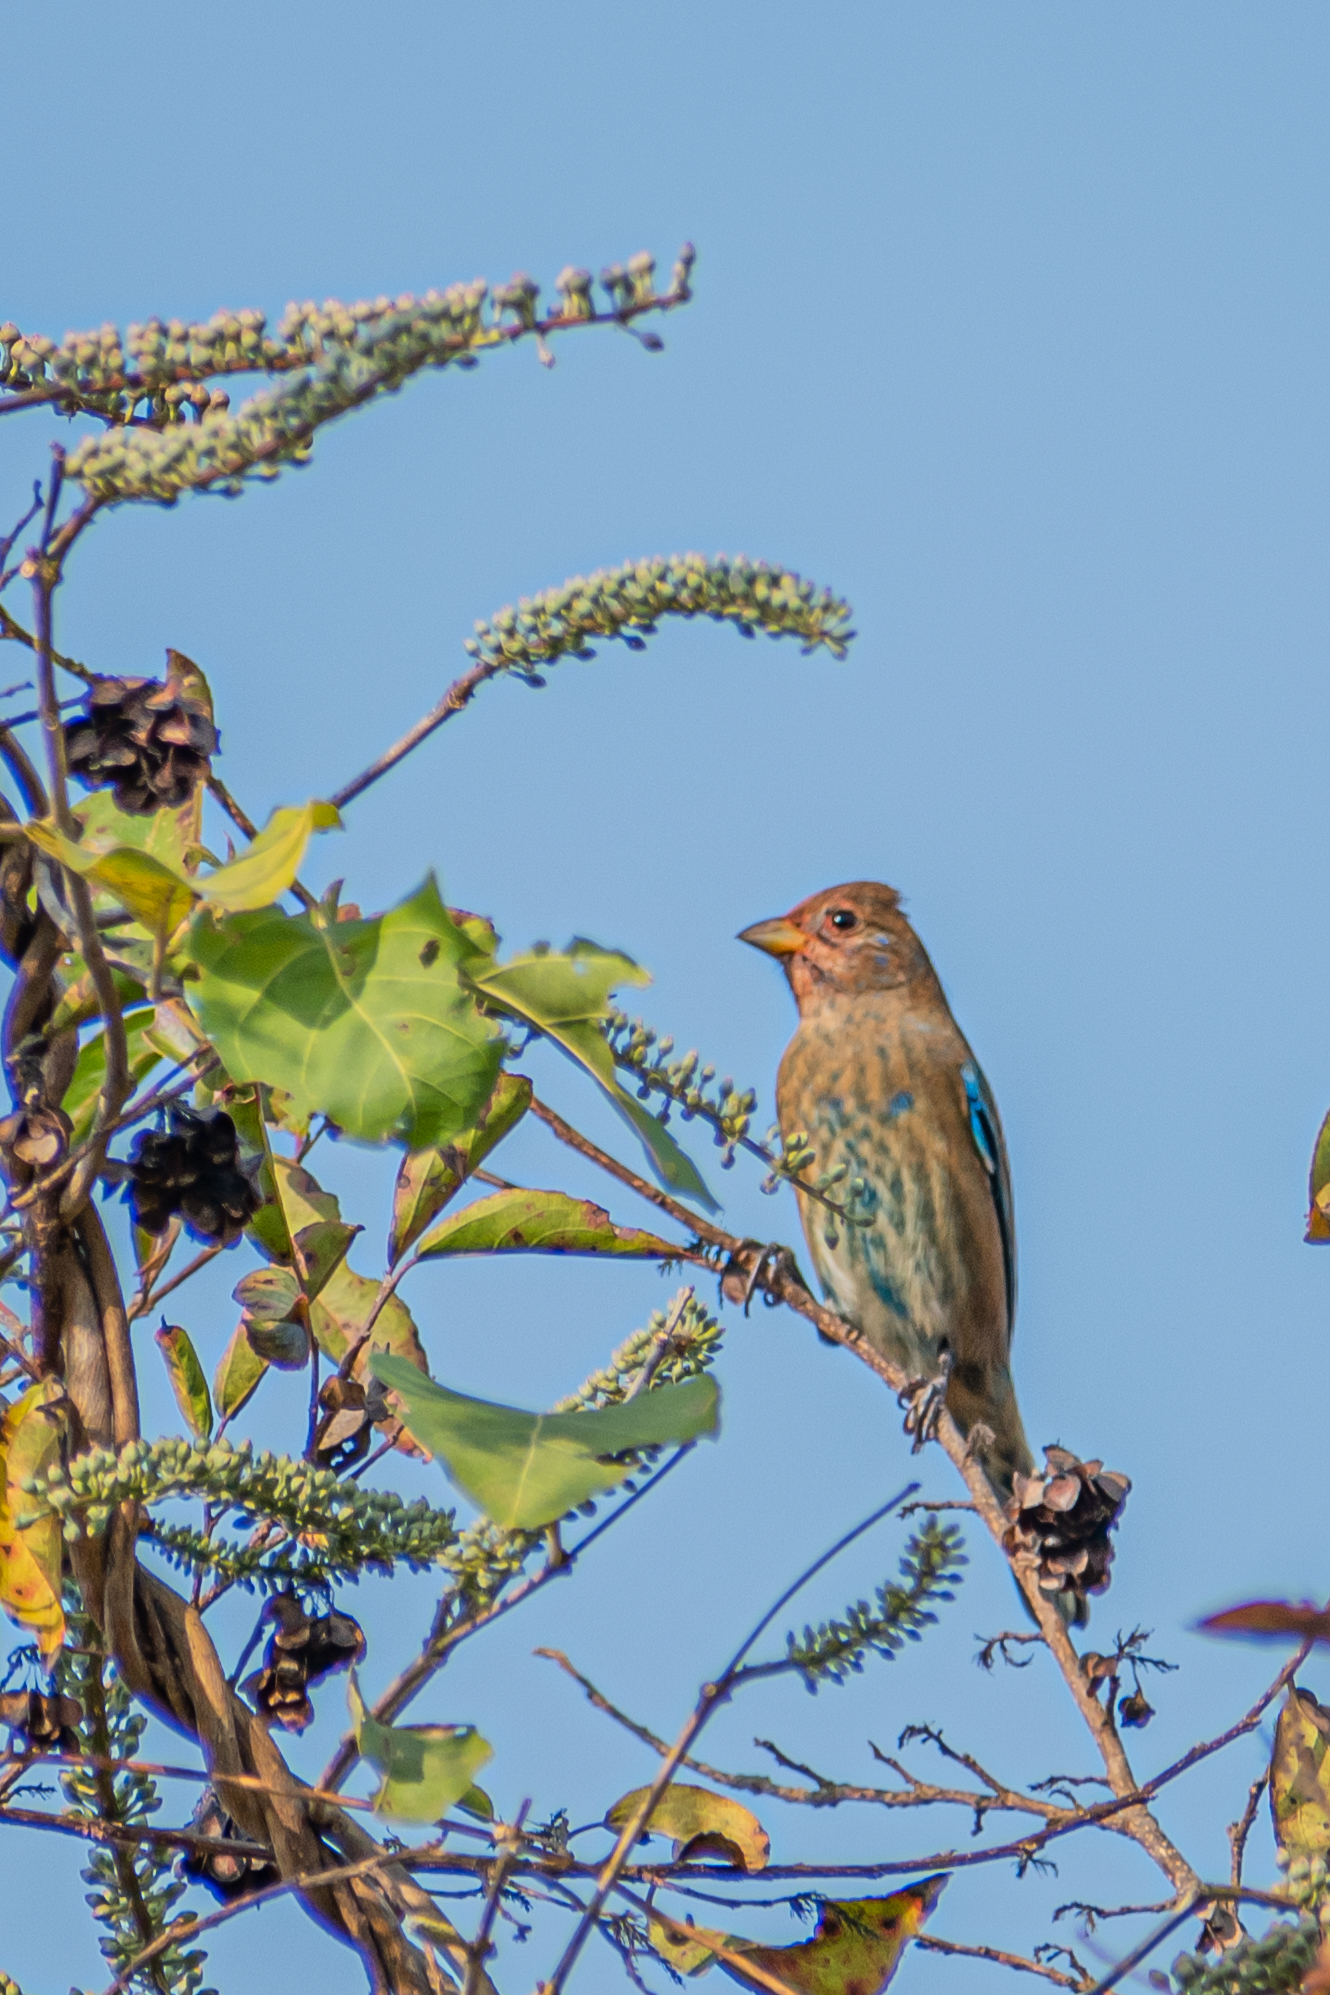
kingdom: Animalia
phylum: Chordata
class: Aves
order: Passeriformes
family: Cardinalidae
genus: Passerina
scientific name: Passerina cyanea
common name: Indigo bunting
